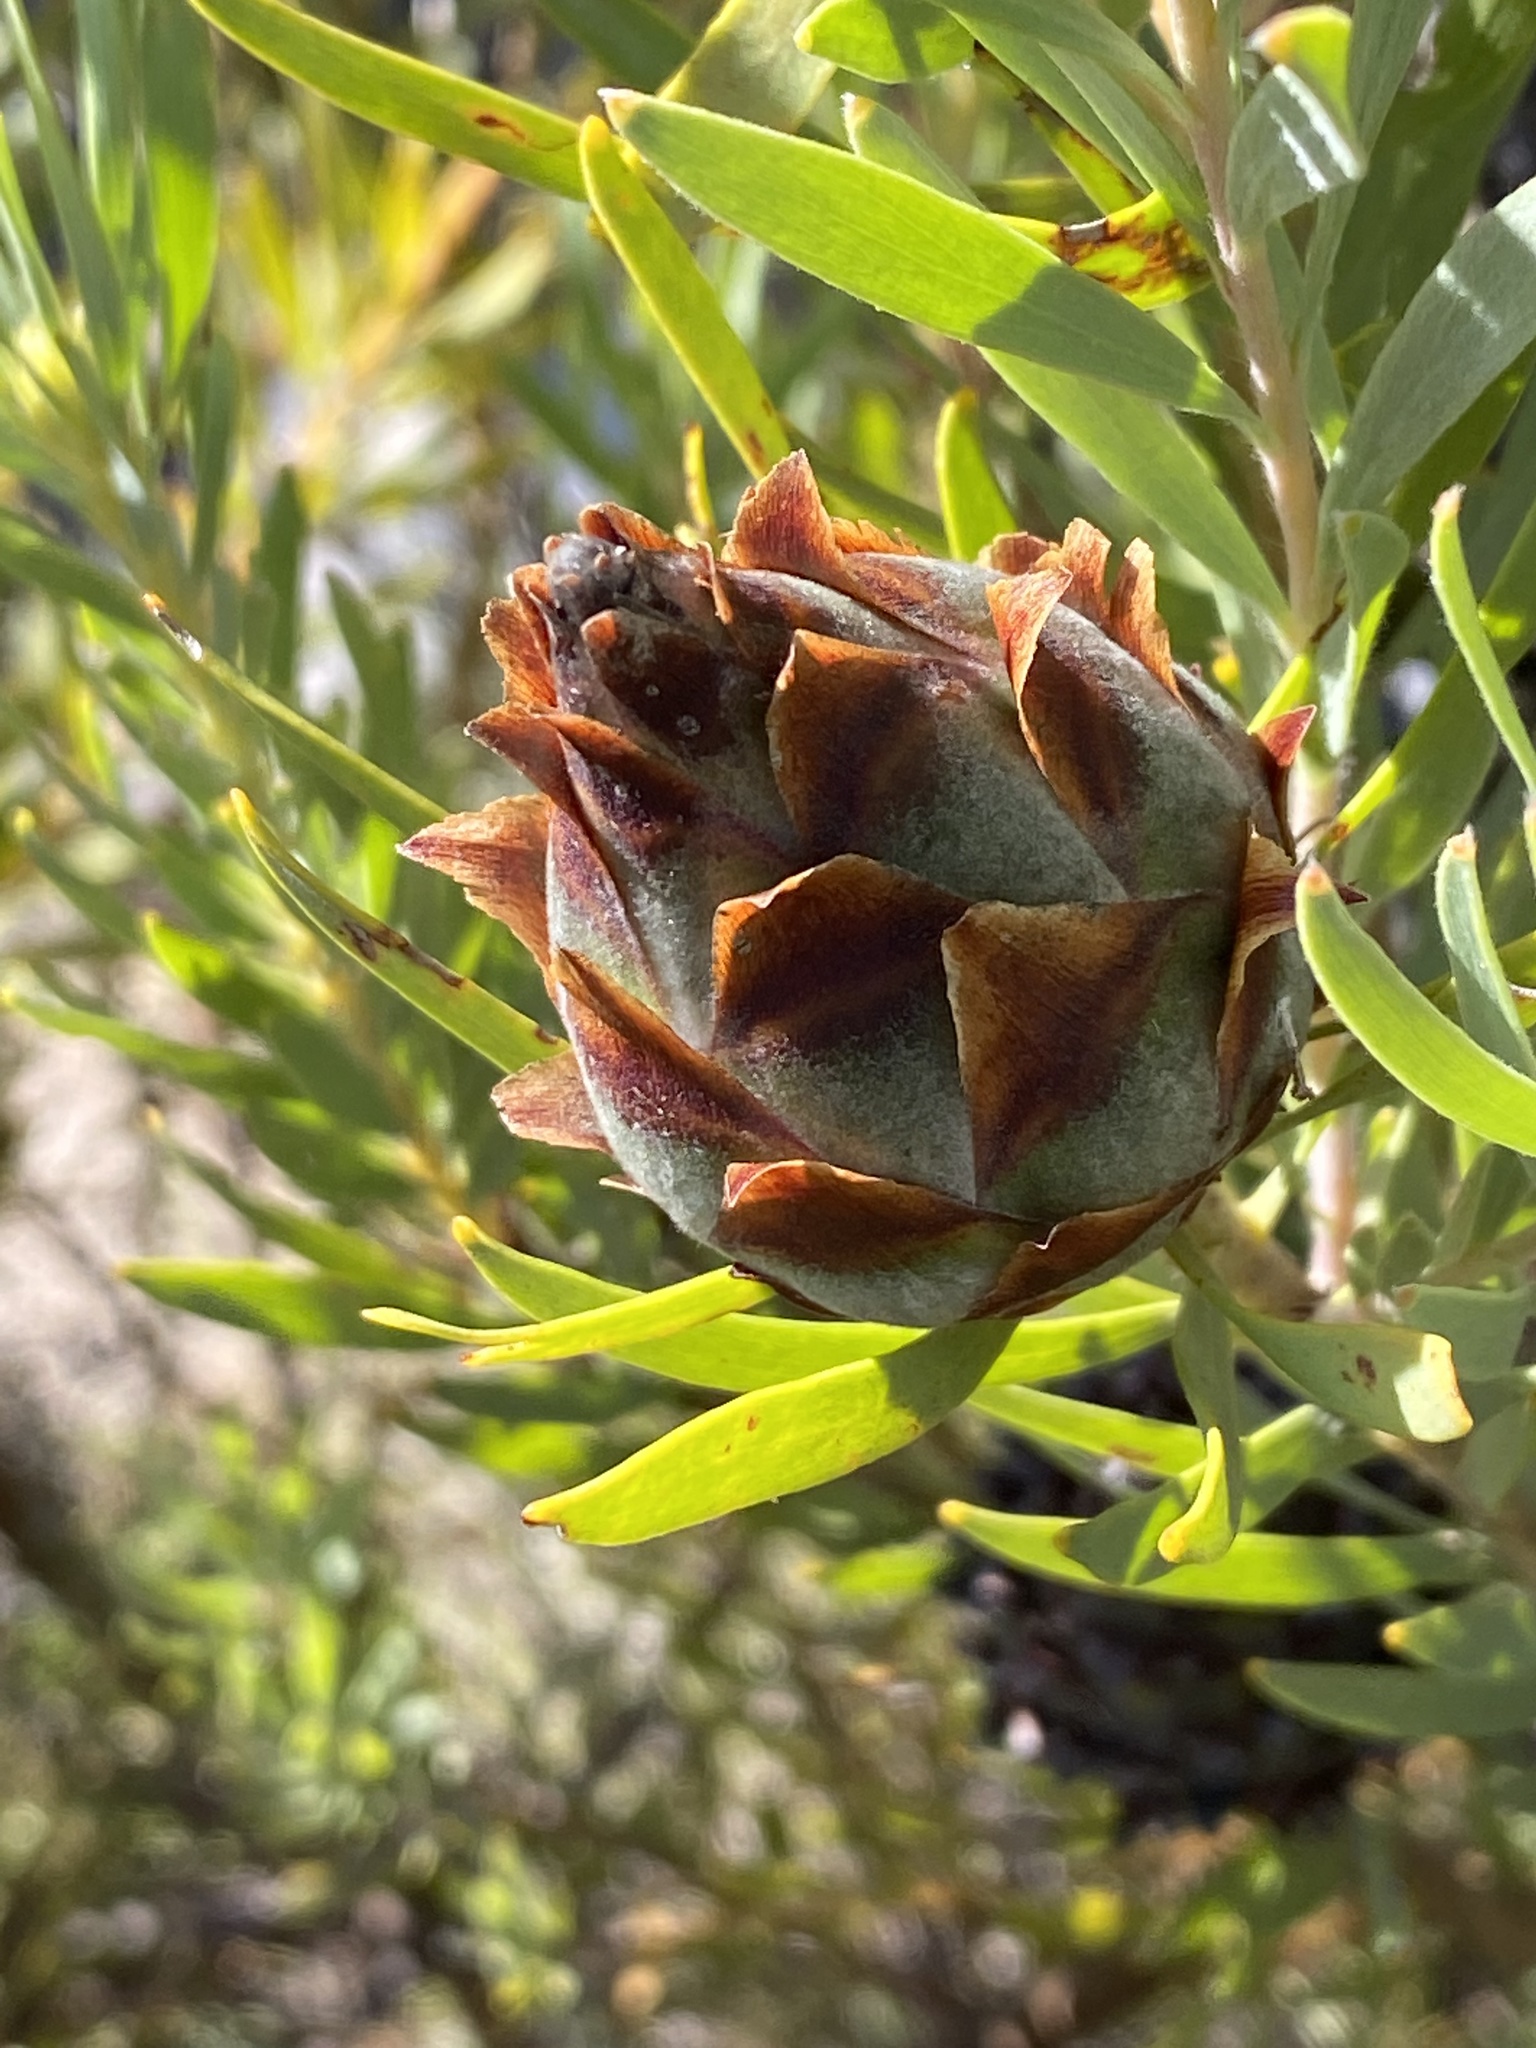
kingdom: Plantae
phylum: Tracheophyta
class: Magnoliopsida
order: Proteales
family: Proteaceae
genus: Leucadendron
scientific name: Leucadendron rubrum
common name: Spinning top
